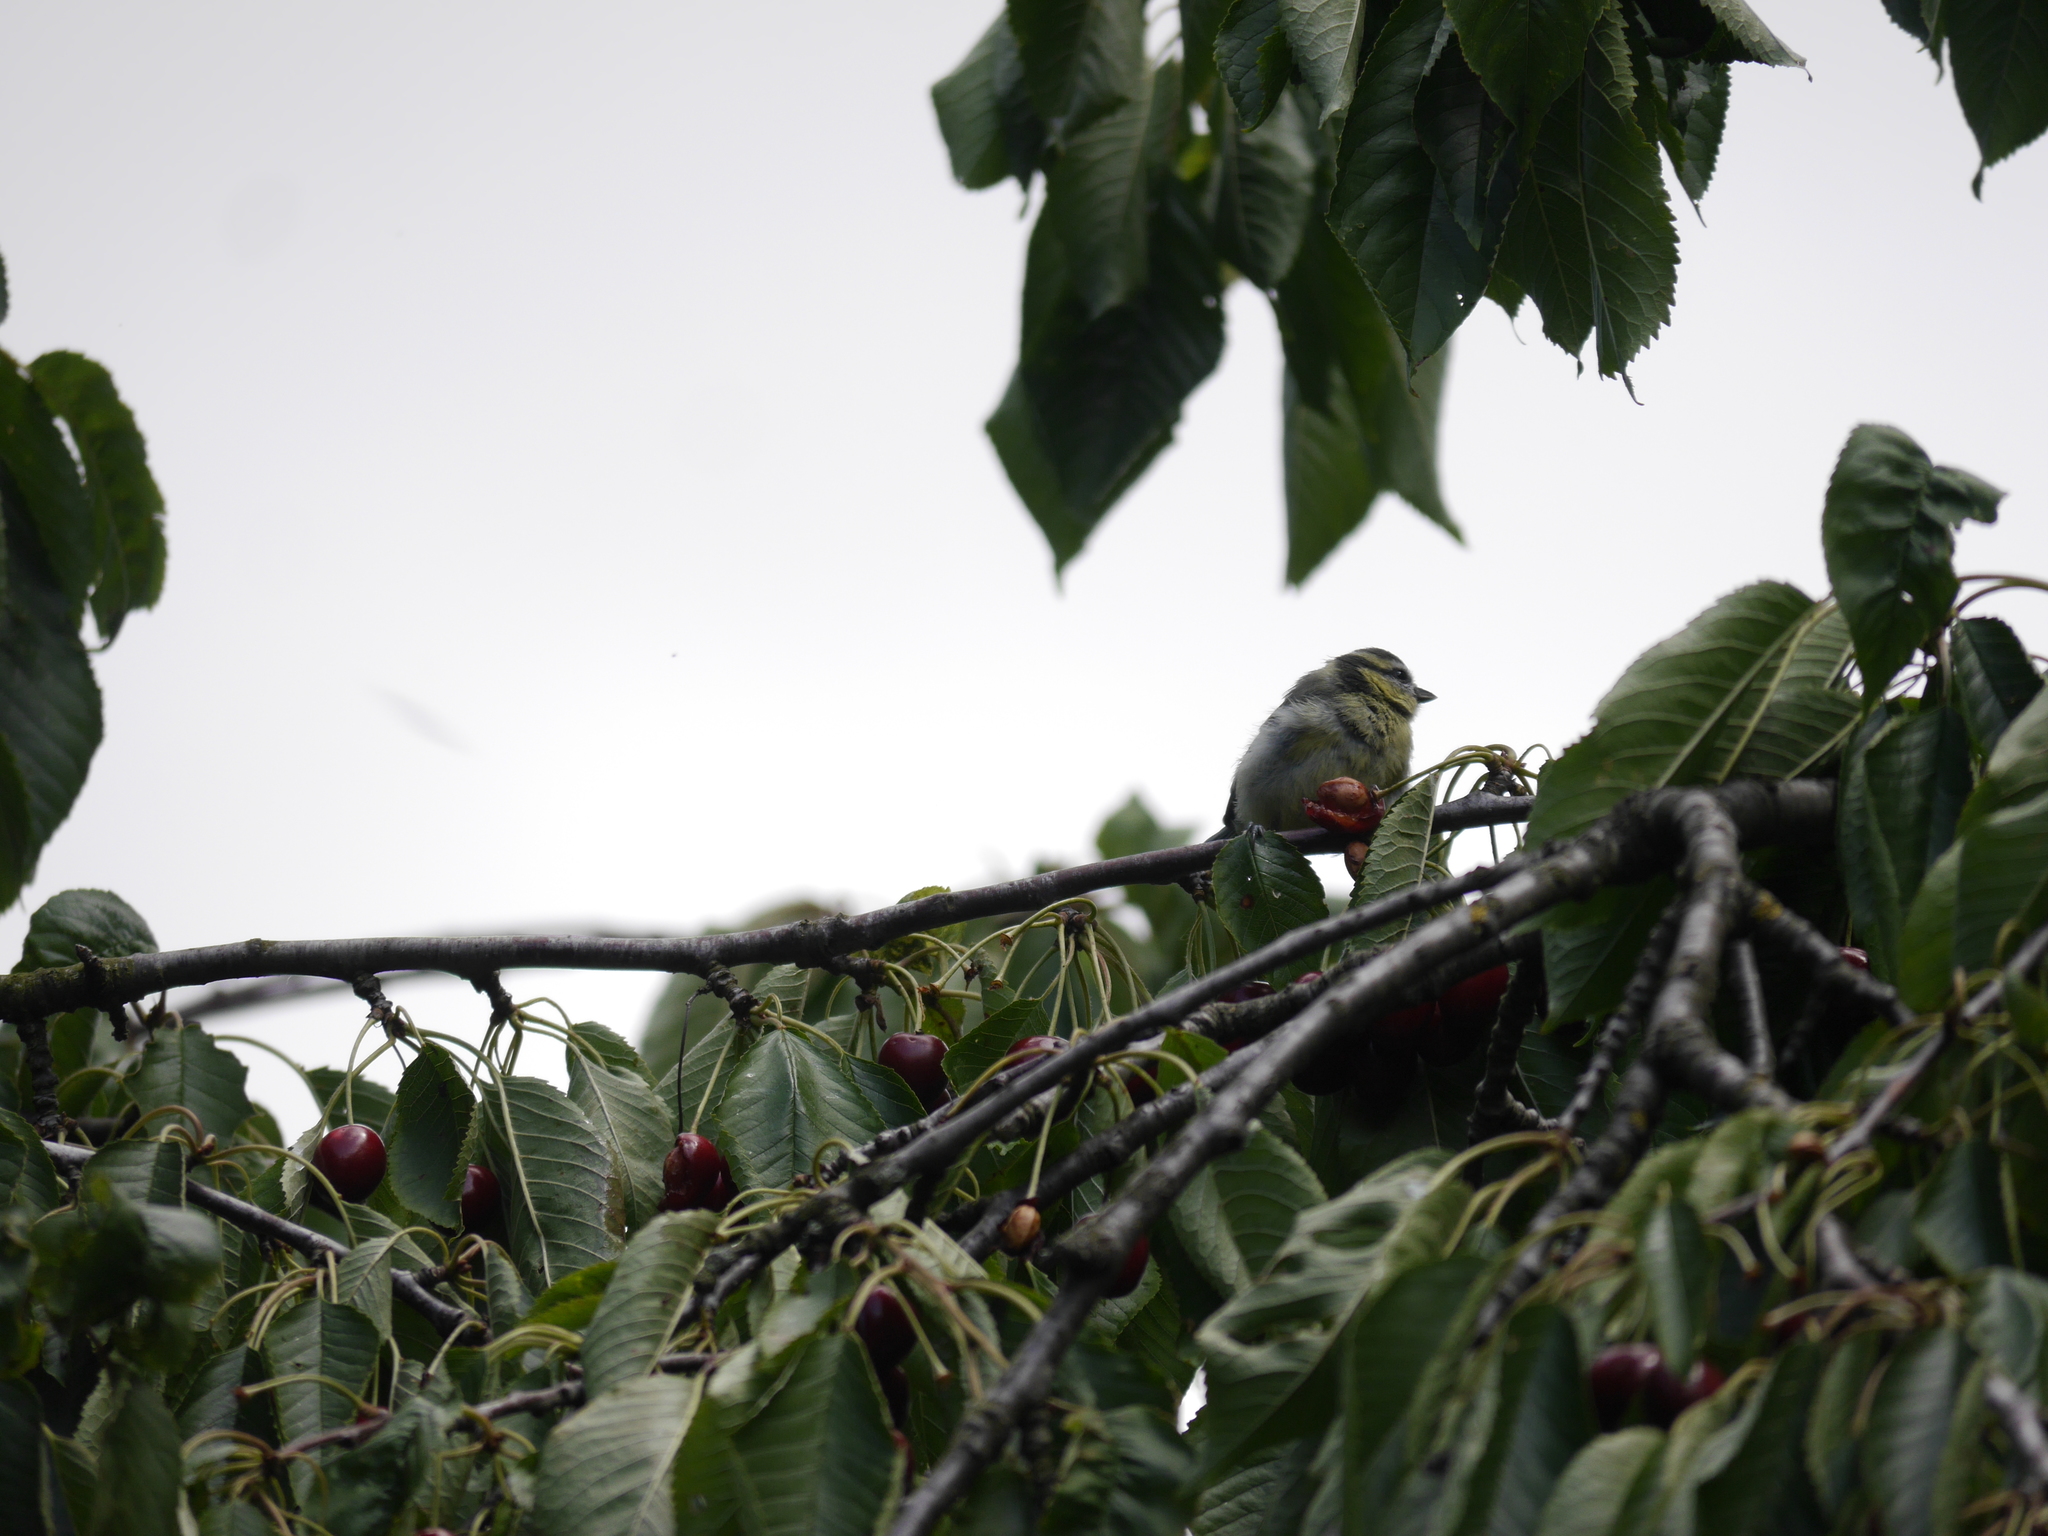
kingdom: Animalia
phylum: Chordata
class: Aves
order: Passeriformes
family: Paridae
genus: Cyanistes
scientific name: Cyanistes caeruleus
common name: Eurasian blue tit
